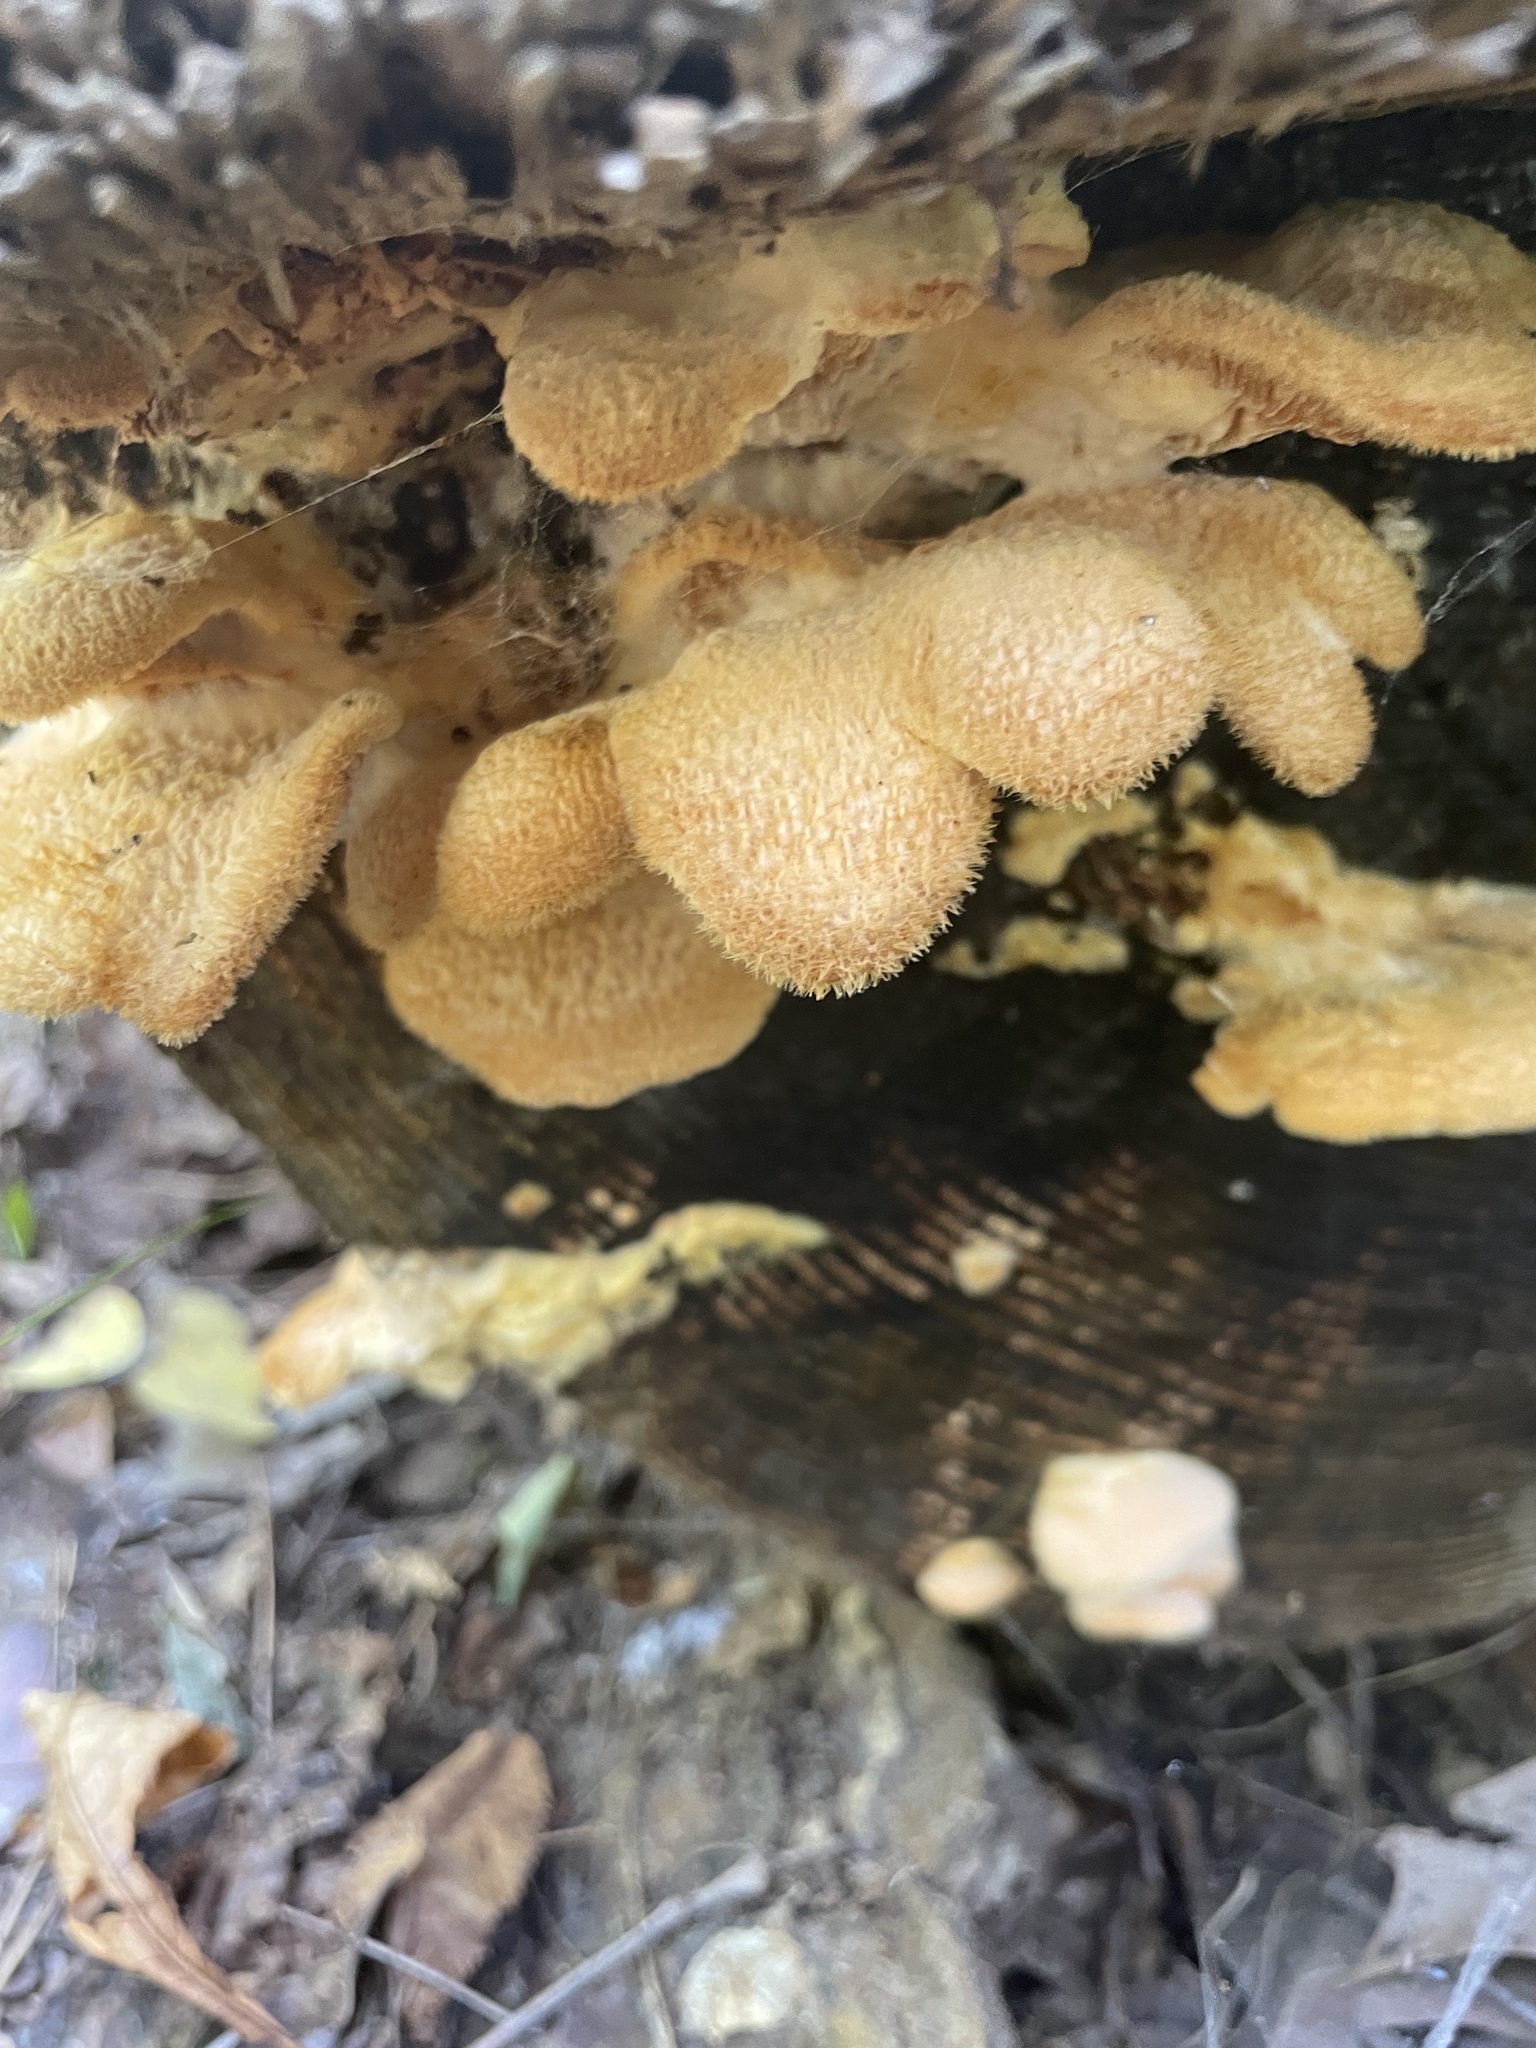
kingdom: Fungi
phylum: Basidiomycota
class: Agaricomycetes
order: Agaricales
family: Phyllotopsidaceae
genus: Phyllotopsis
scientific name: Phyllotopsis nidulans
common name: Orange mock oyster
